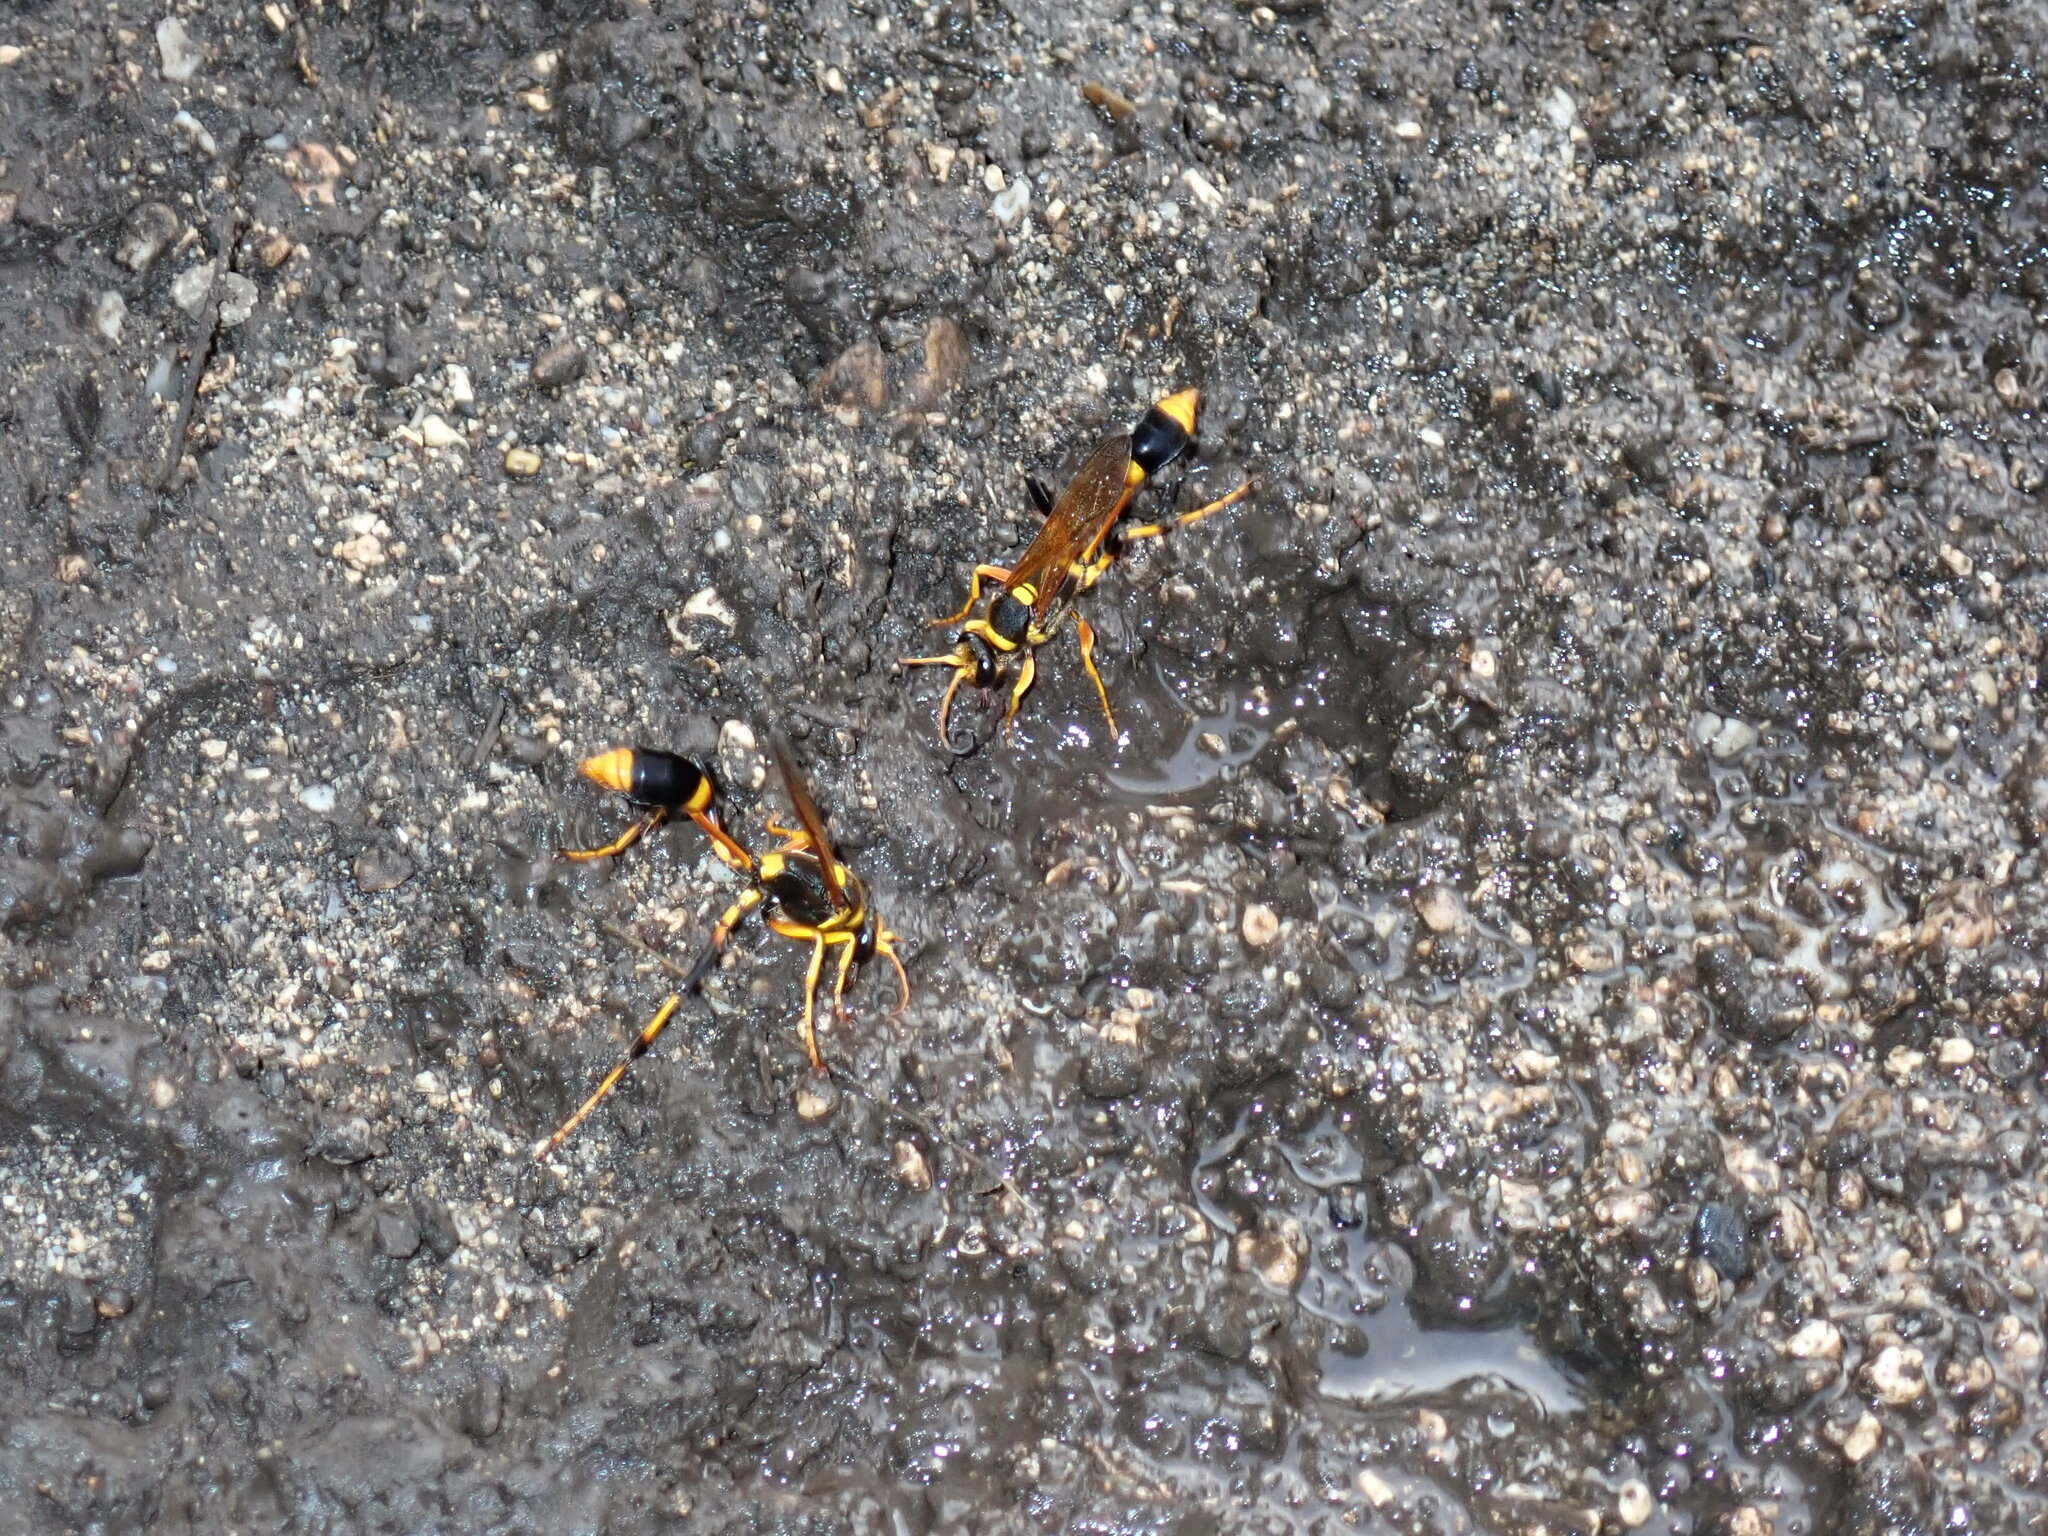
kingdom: Animalia
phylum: Arthropoda
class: Insecta
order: Hymenoptera
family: Sphecidae
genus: Sceliphron
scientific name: Sceliphron laetum
